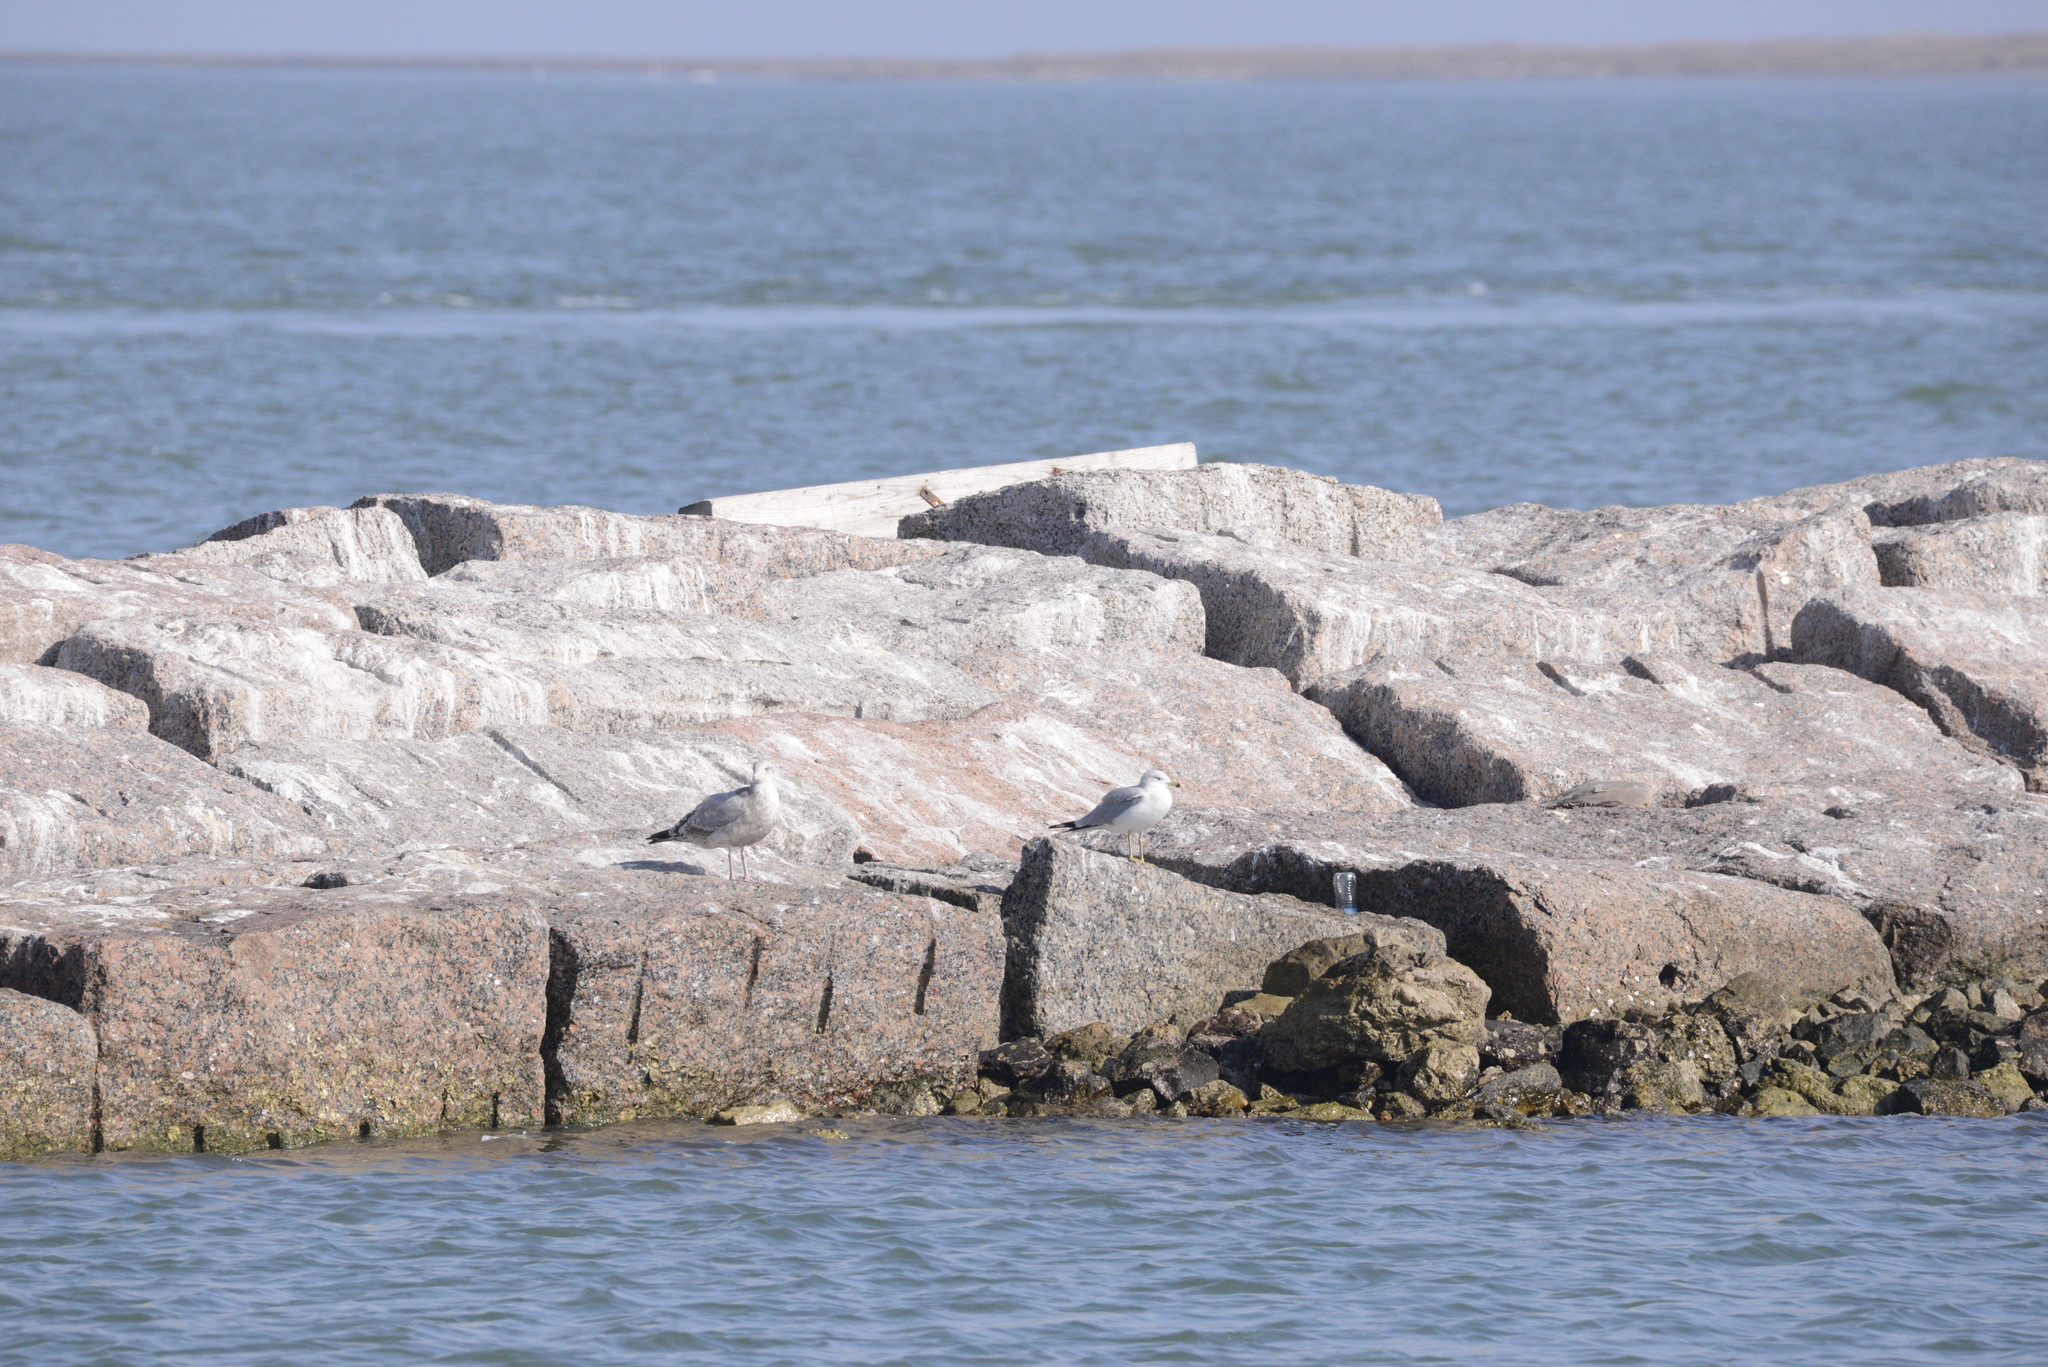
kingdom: Animalia
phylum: Chordata
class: Aves
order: Charadriiformes
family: Laridae
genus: Larus
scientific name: Larus delawarensis
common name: Ring-billed gull
